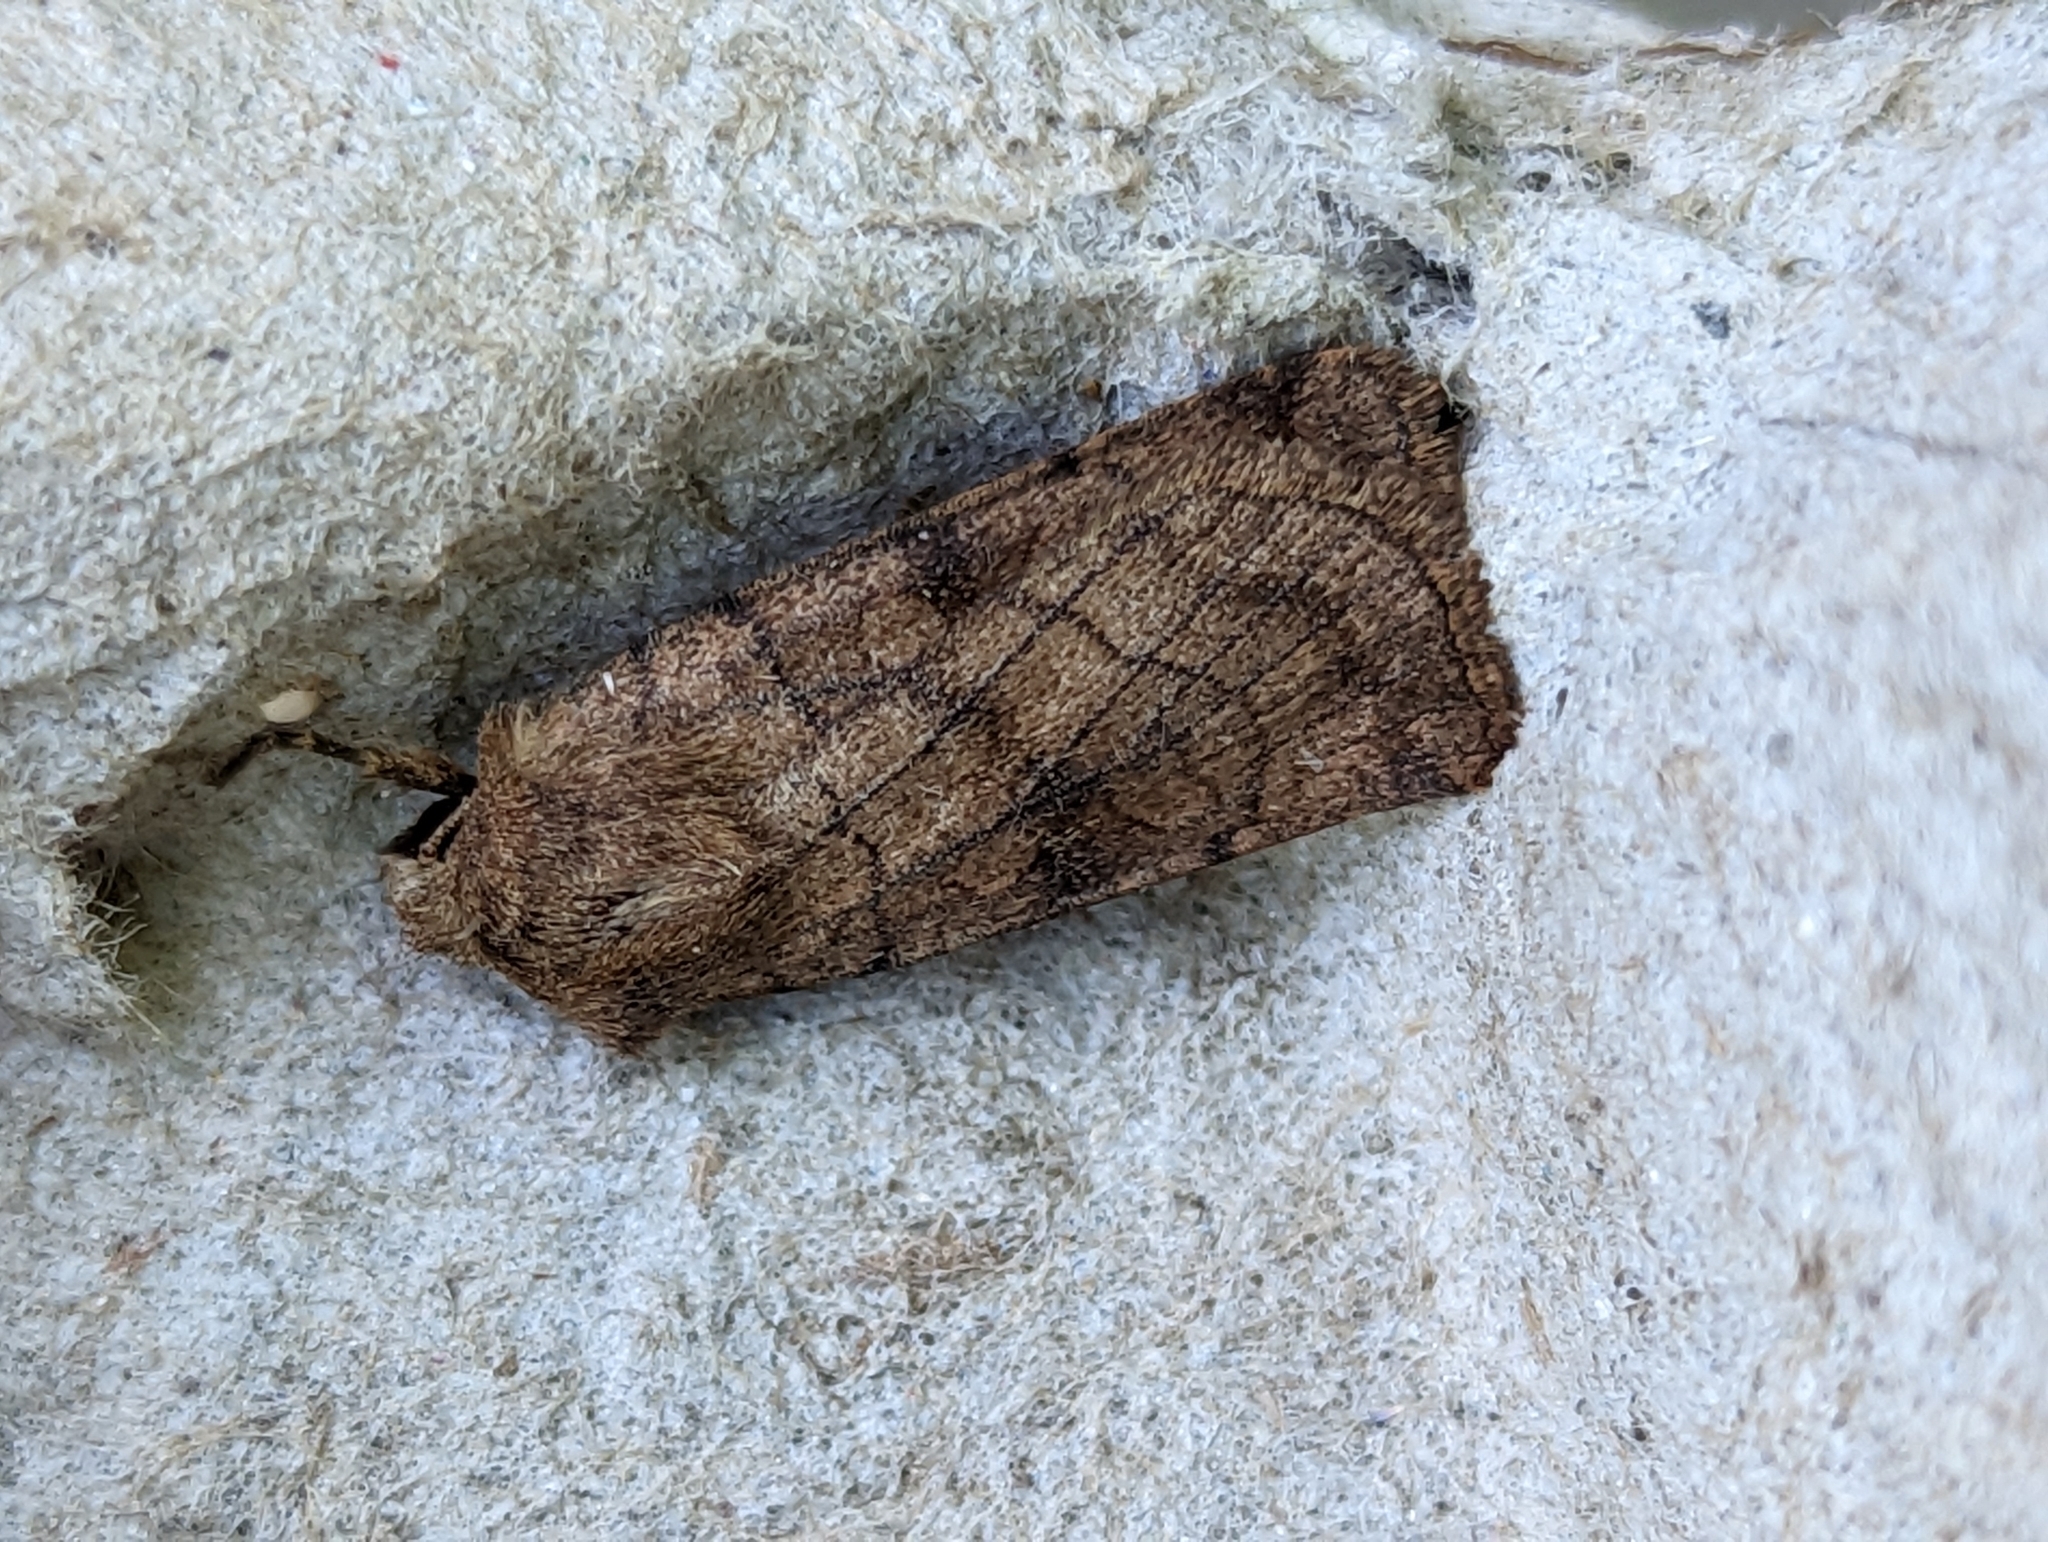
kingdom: Animalia
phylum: Arthropoda
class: Insecta
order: Lepidoptera
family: Noctuidae
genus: Xestia
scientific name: Xestia sexstrigata
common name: Six-striped rustic
